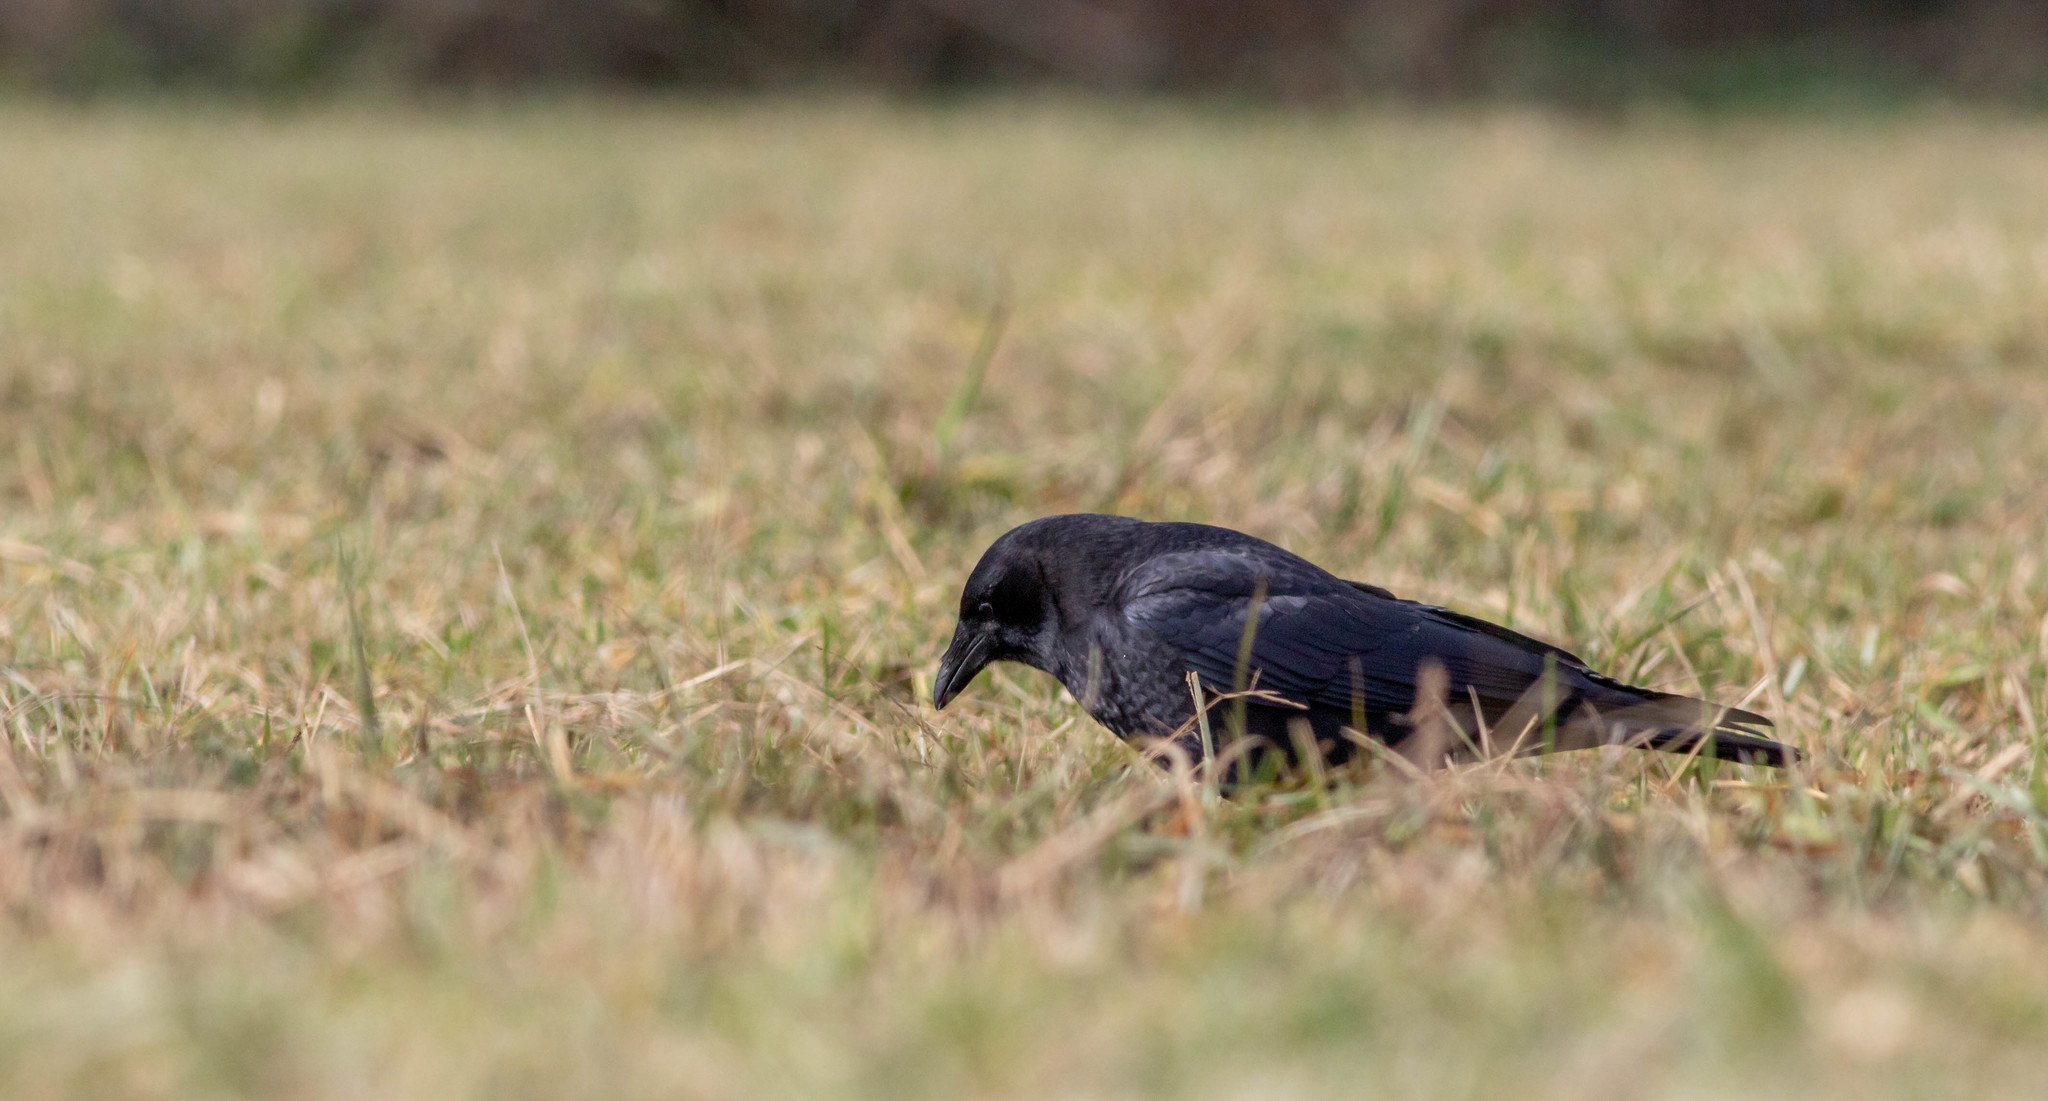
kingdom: Animalia
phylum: Chordata
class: Aves
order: Passeriformes
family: Corvidae
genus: Corvus
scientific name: Corvus brachyrhynchos
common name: American crow
